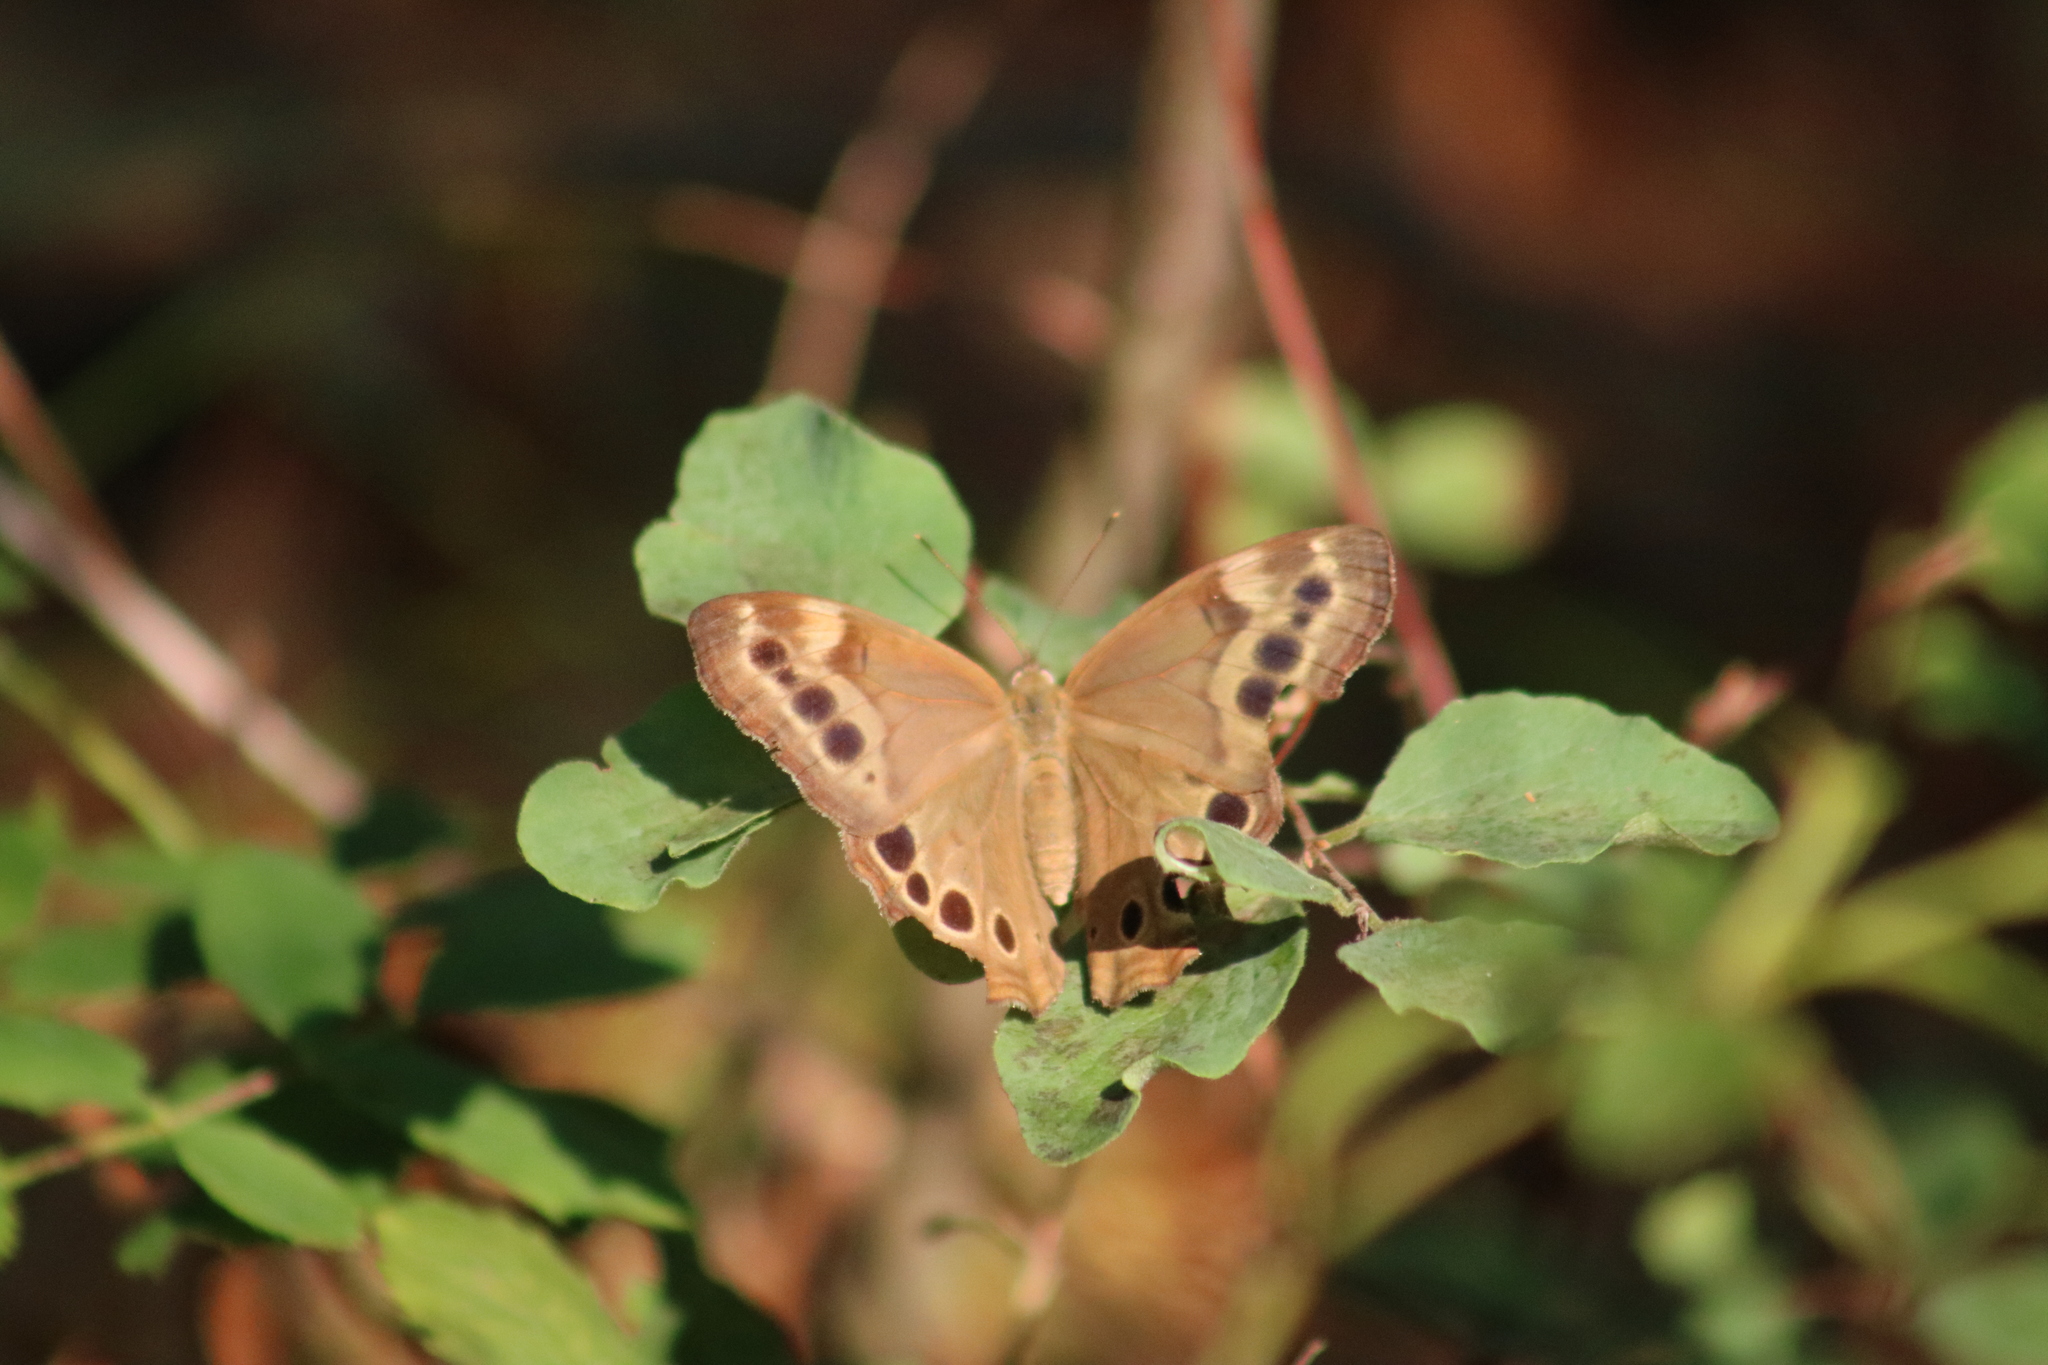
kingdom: Animalia
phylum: Arthropoda
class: Insecta
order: Lepidoptera
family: Nymphalidae
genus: Lethe
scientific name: Lethe anthedon
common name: Northern pearly-eye
